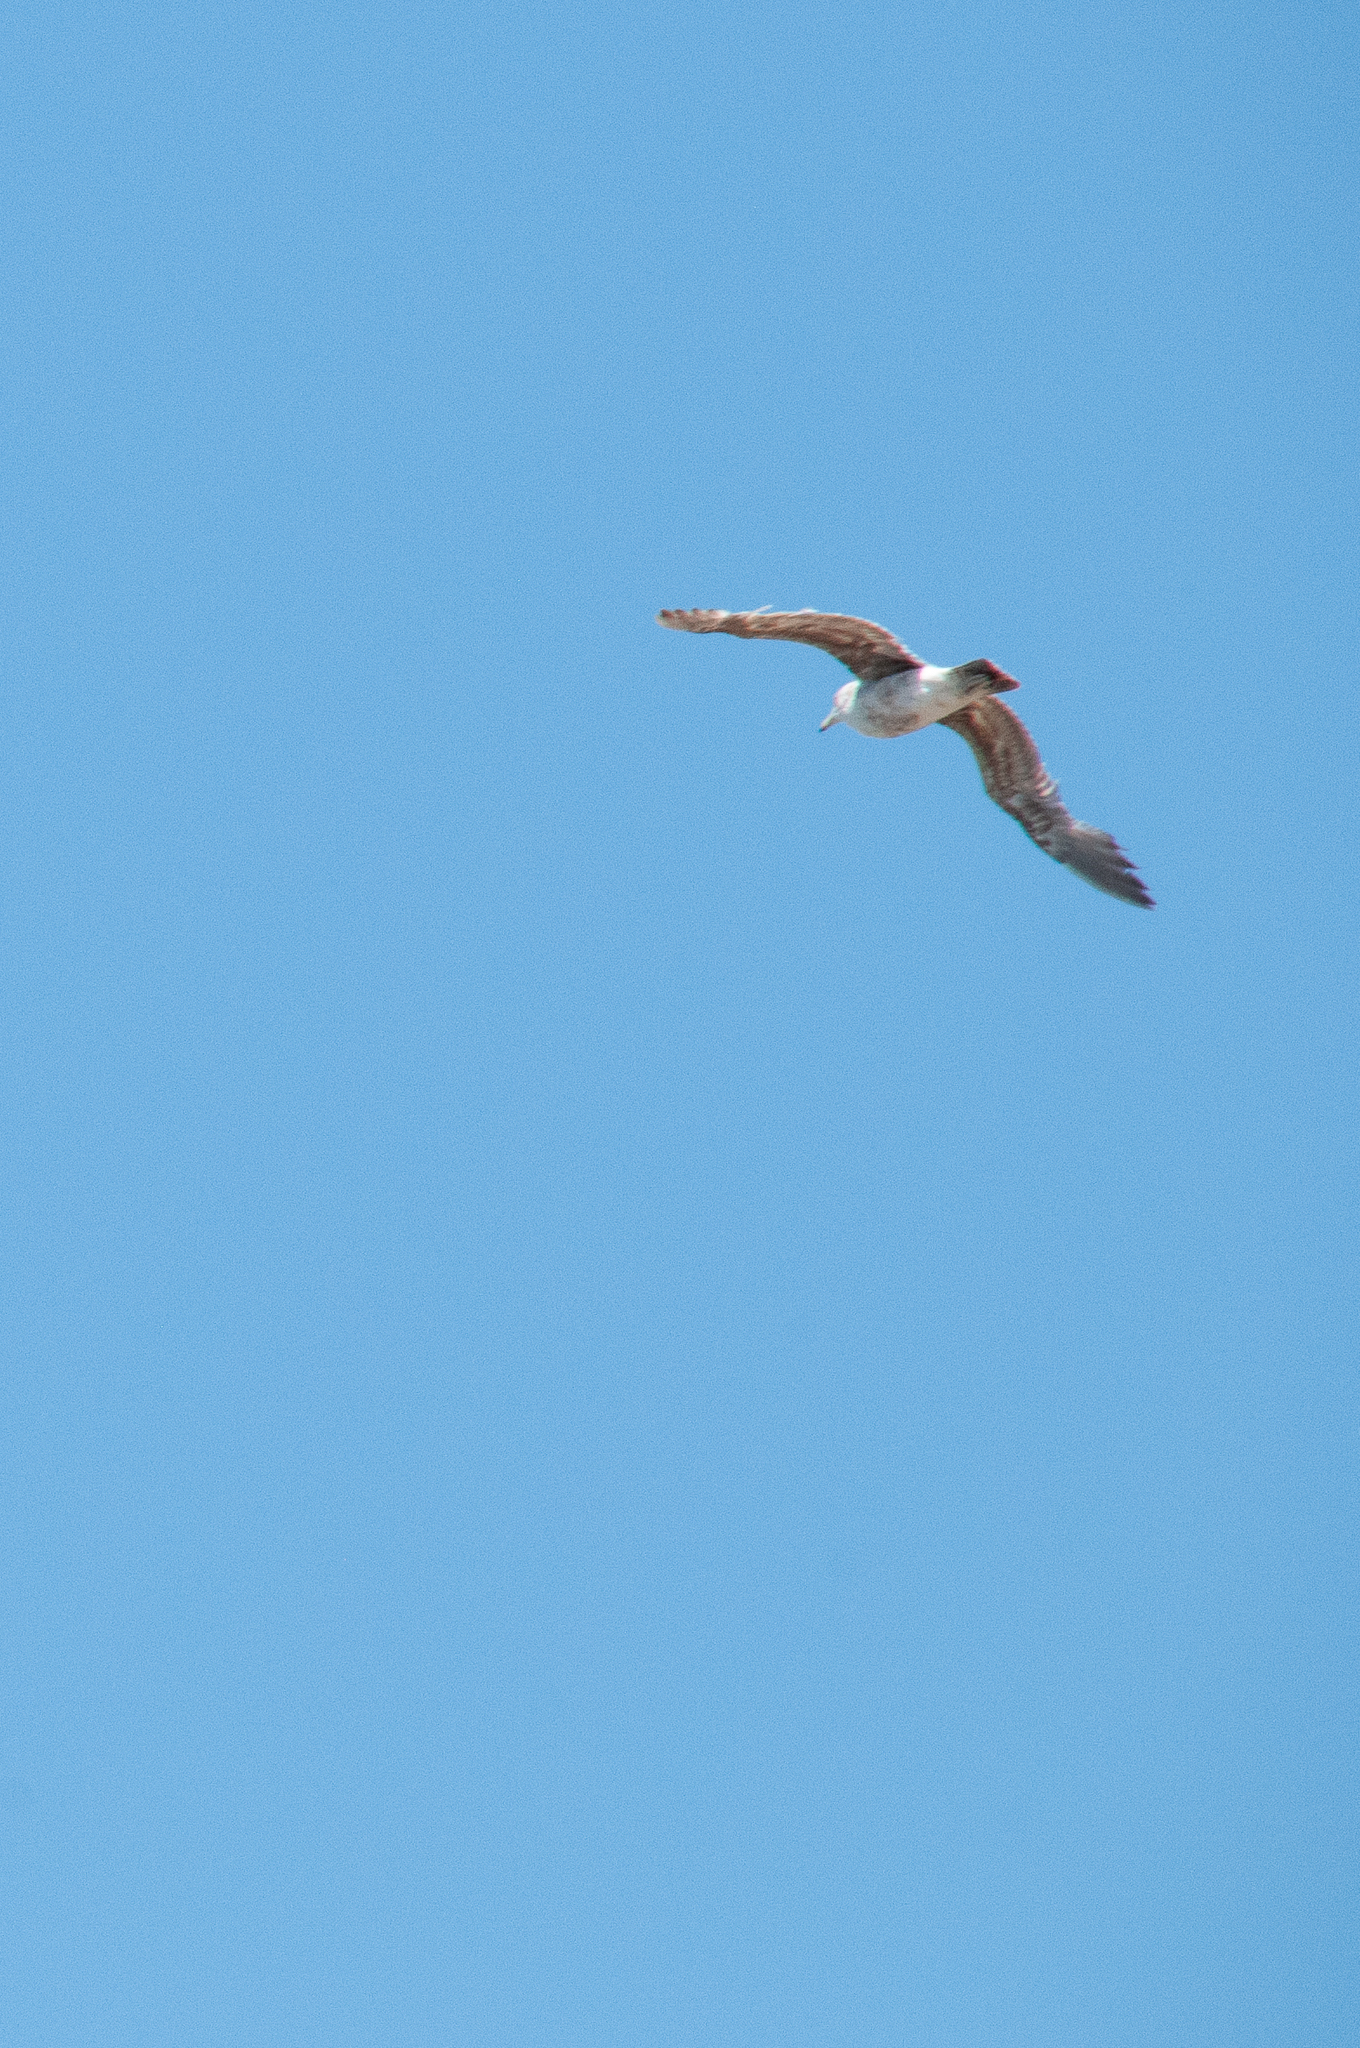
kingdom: Animalia
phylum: Chordata
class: Aves
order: Charadriiformes
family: Laridae
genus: Larus
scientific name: Larus californicus
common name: California gull
